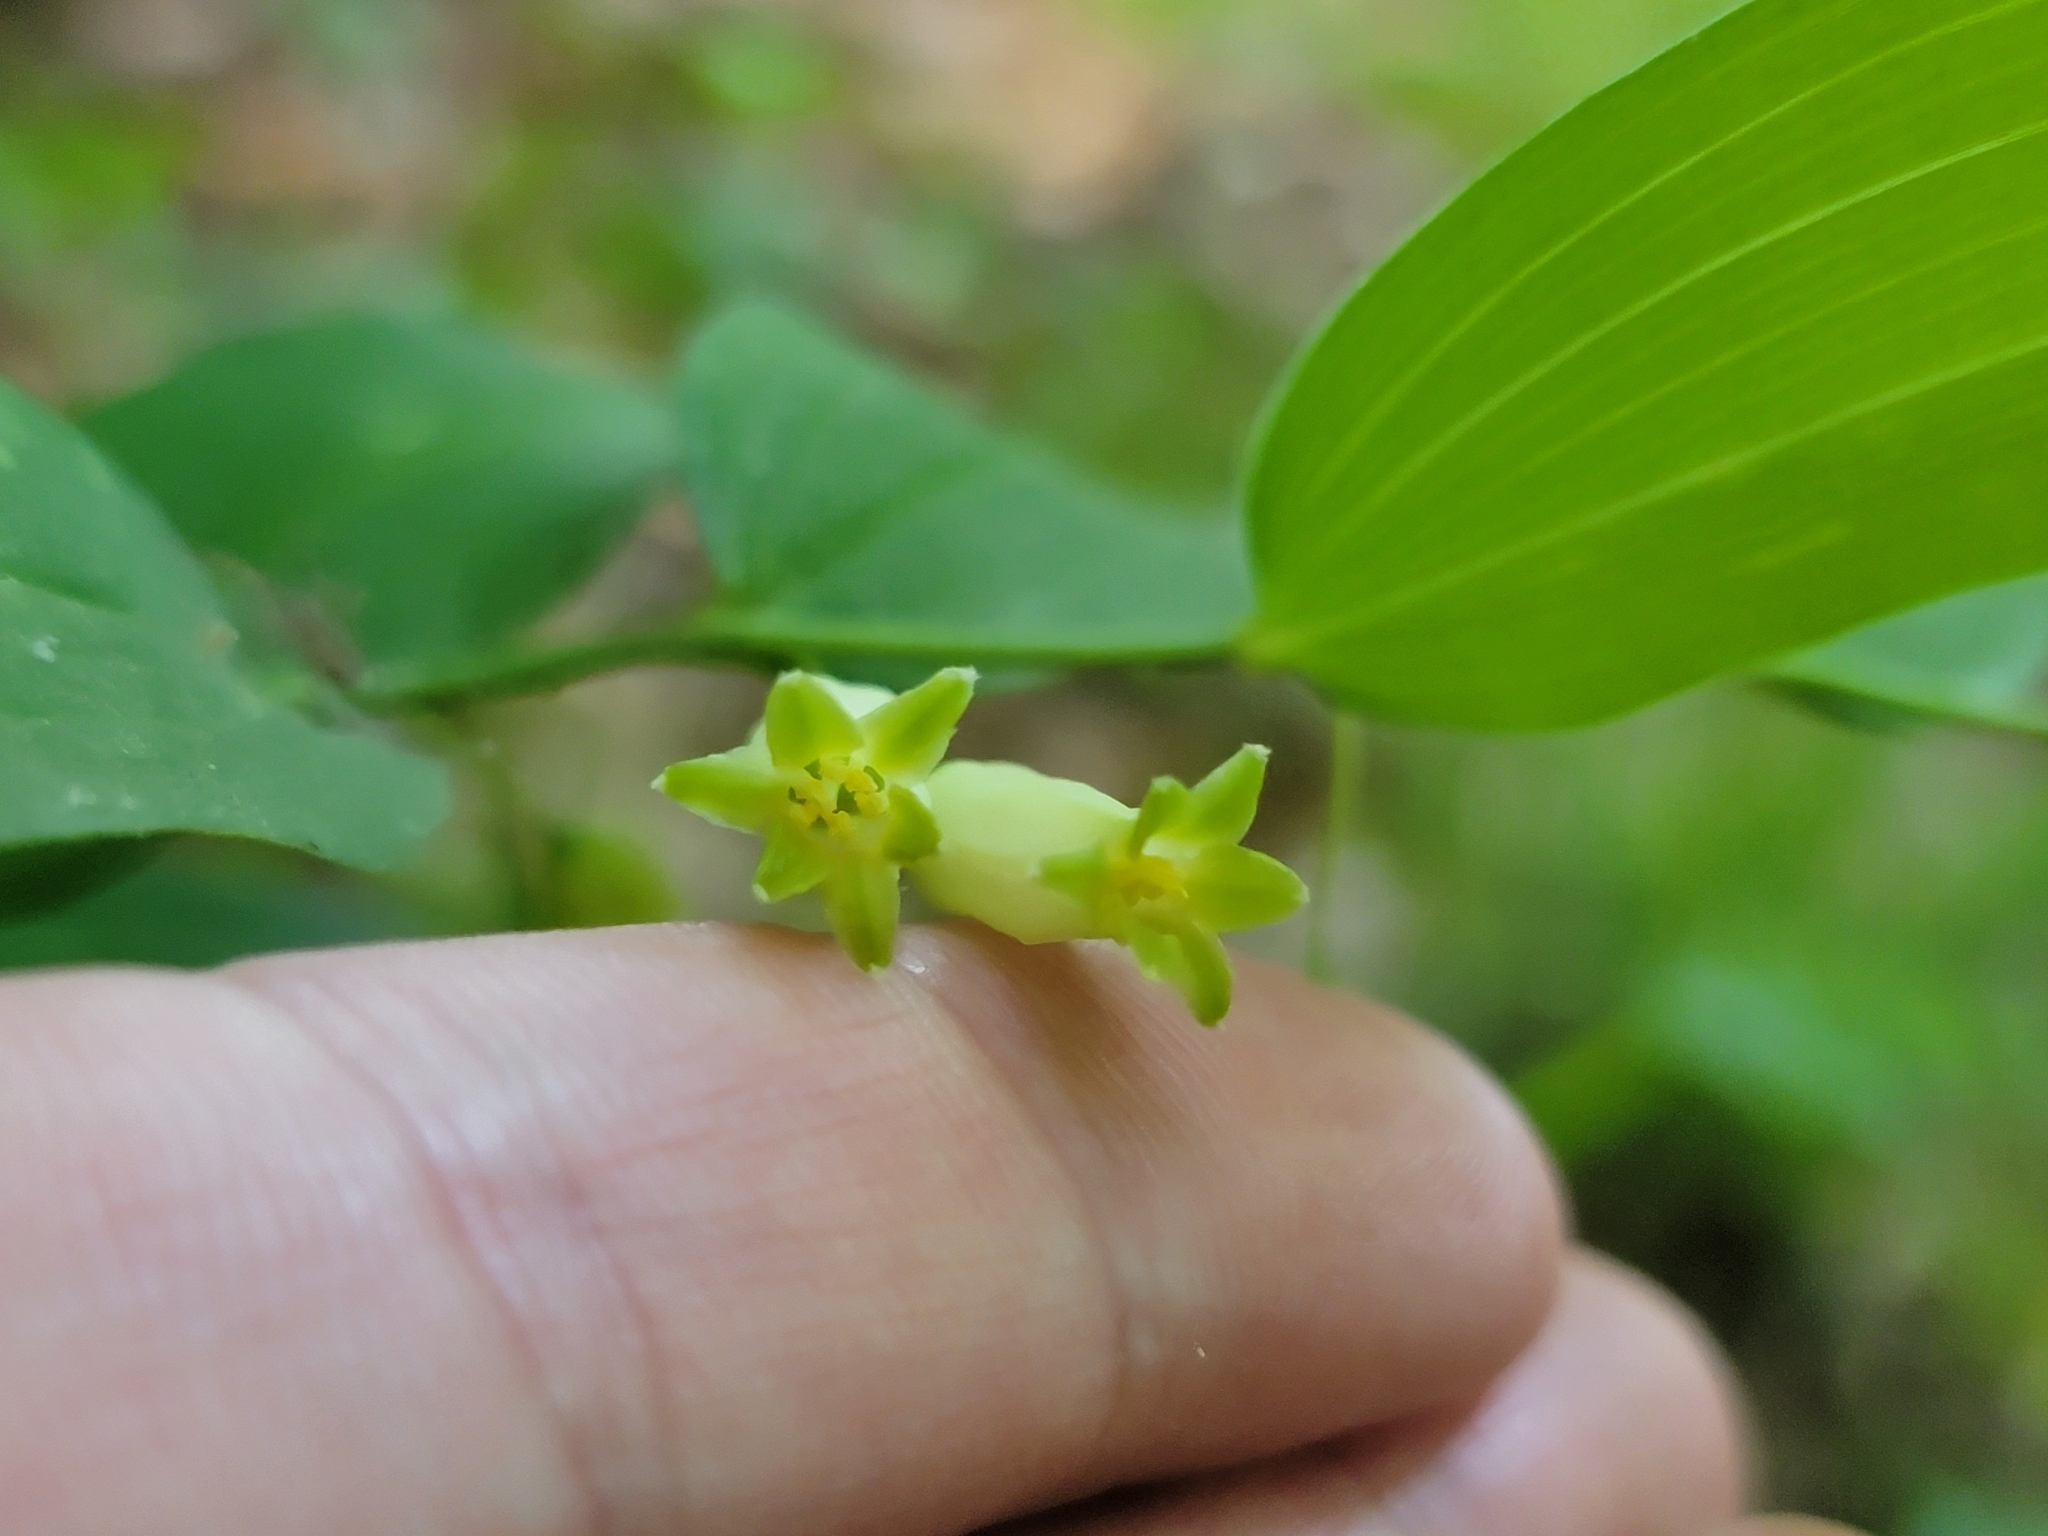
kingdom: Plantae
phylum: Tracheophyta
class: Liliopsida
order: Asparagales
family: Asparagaceae
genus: Polygonatum
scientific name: Polygonatum biflorum
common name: American solomon's-seal
